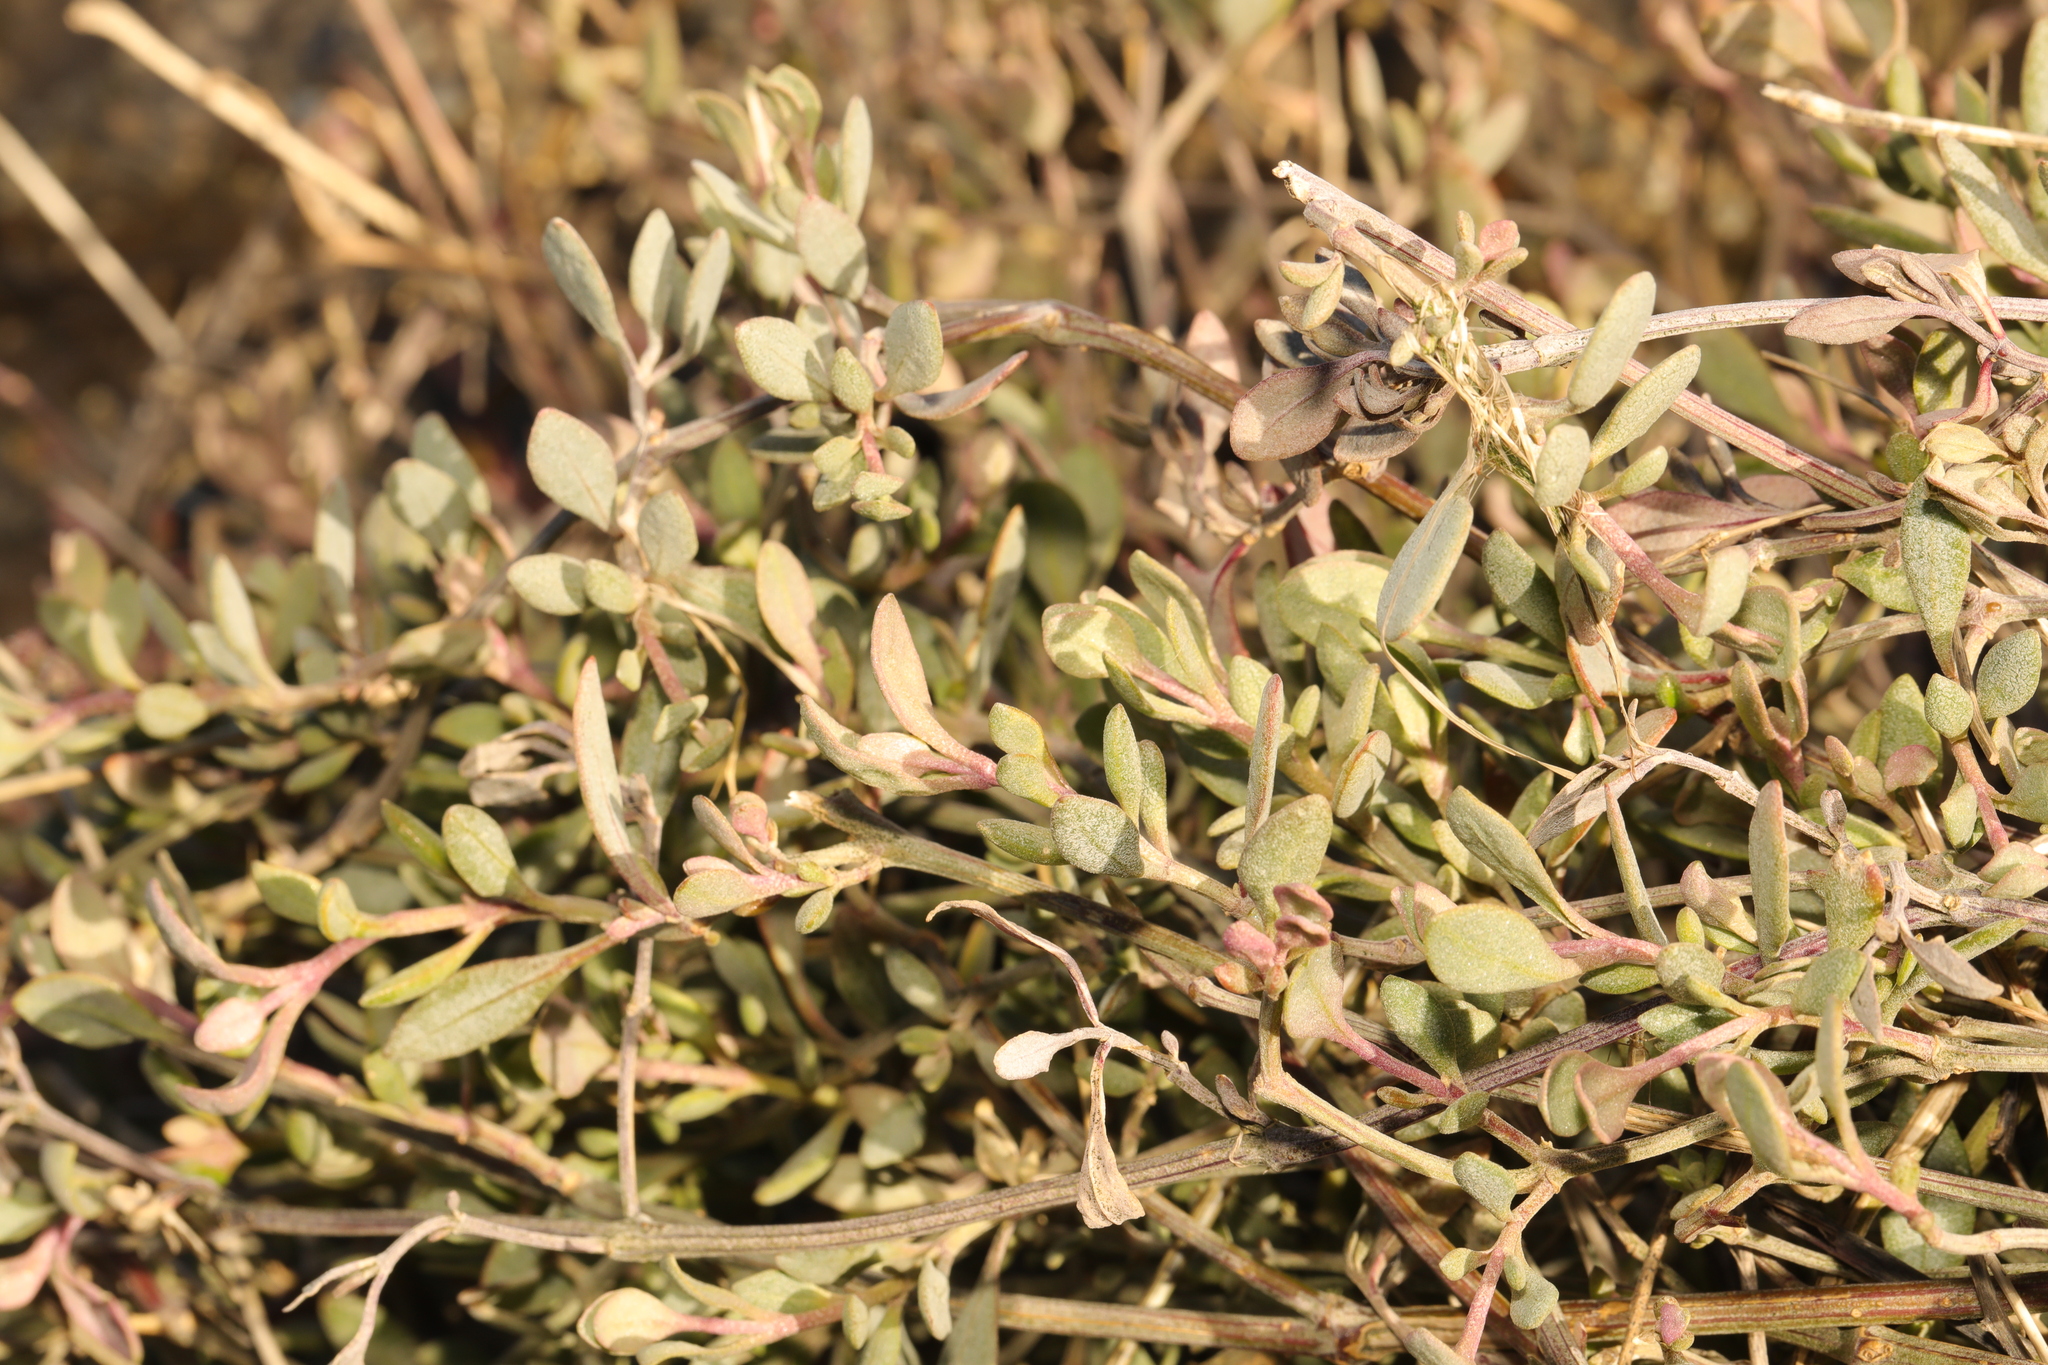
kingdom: Plantae
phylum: Tracheophyta
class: Magnoliopsida
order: Caryophyllales
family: Amaranthaceae
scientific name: Amaranthaceae
